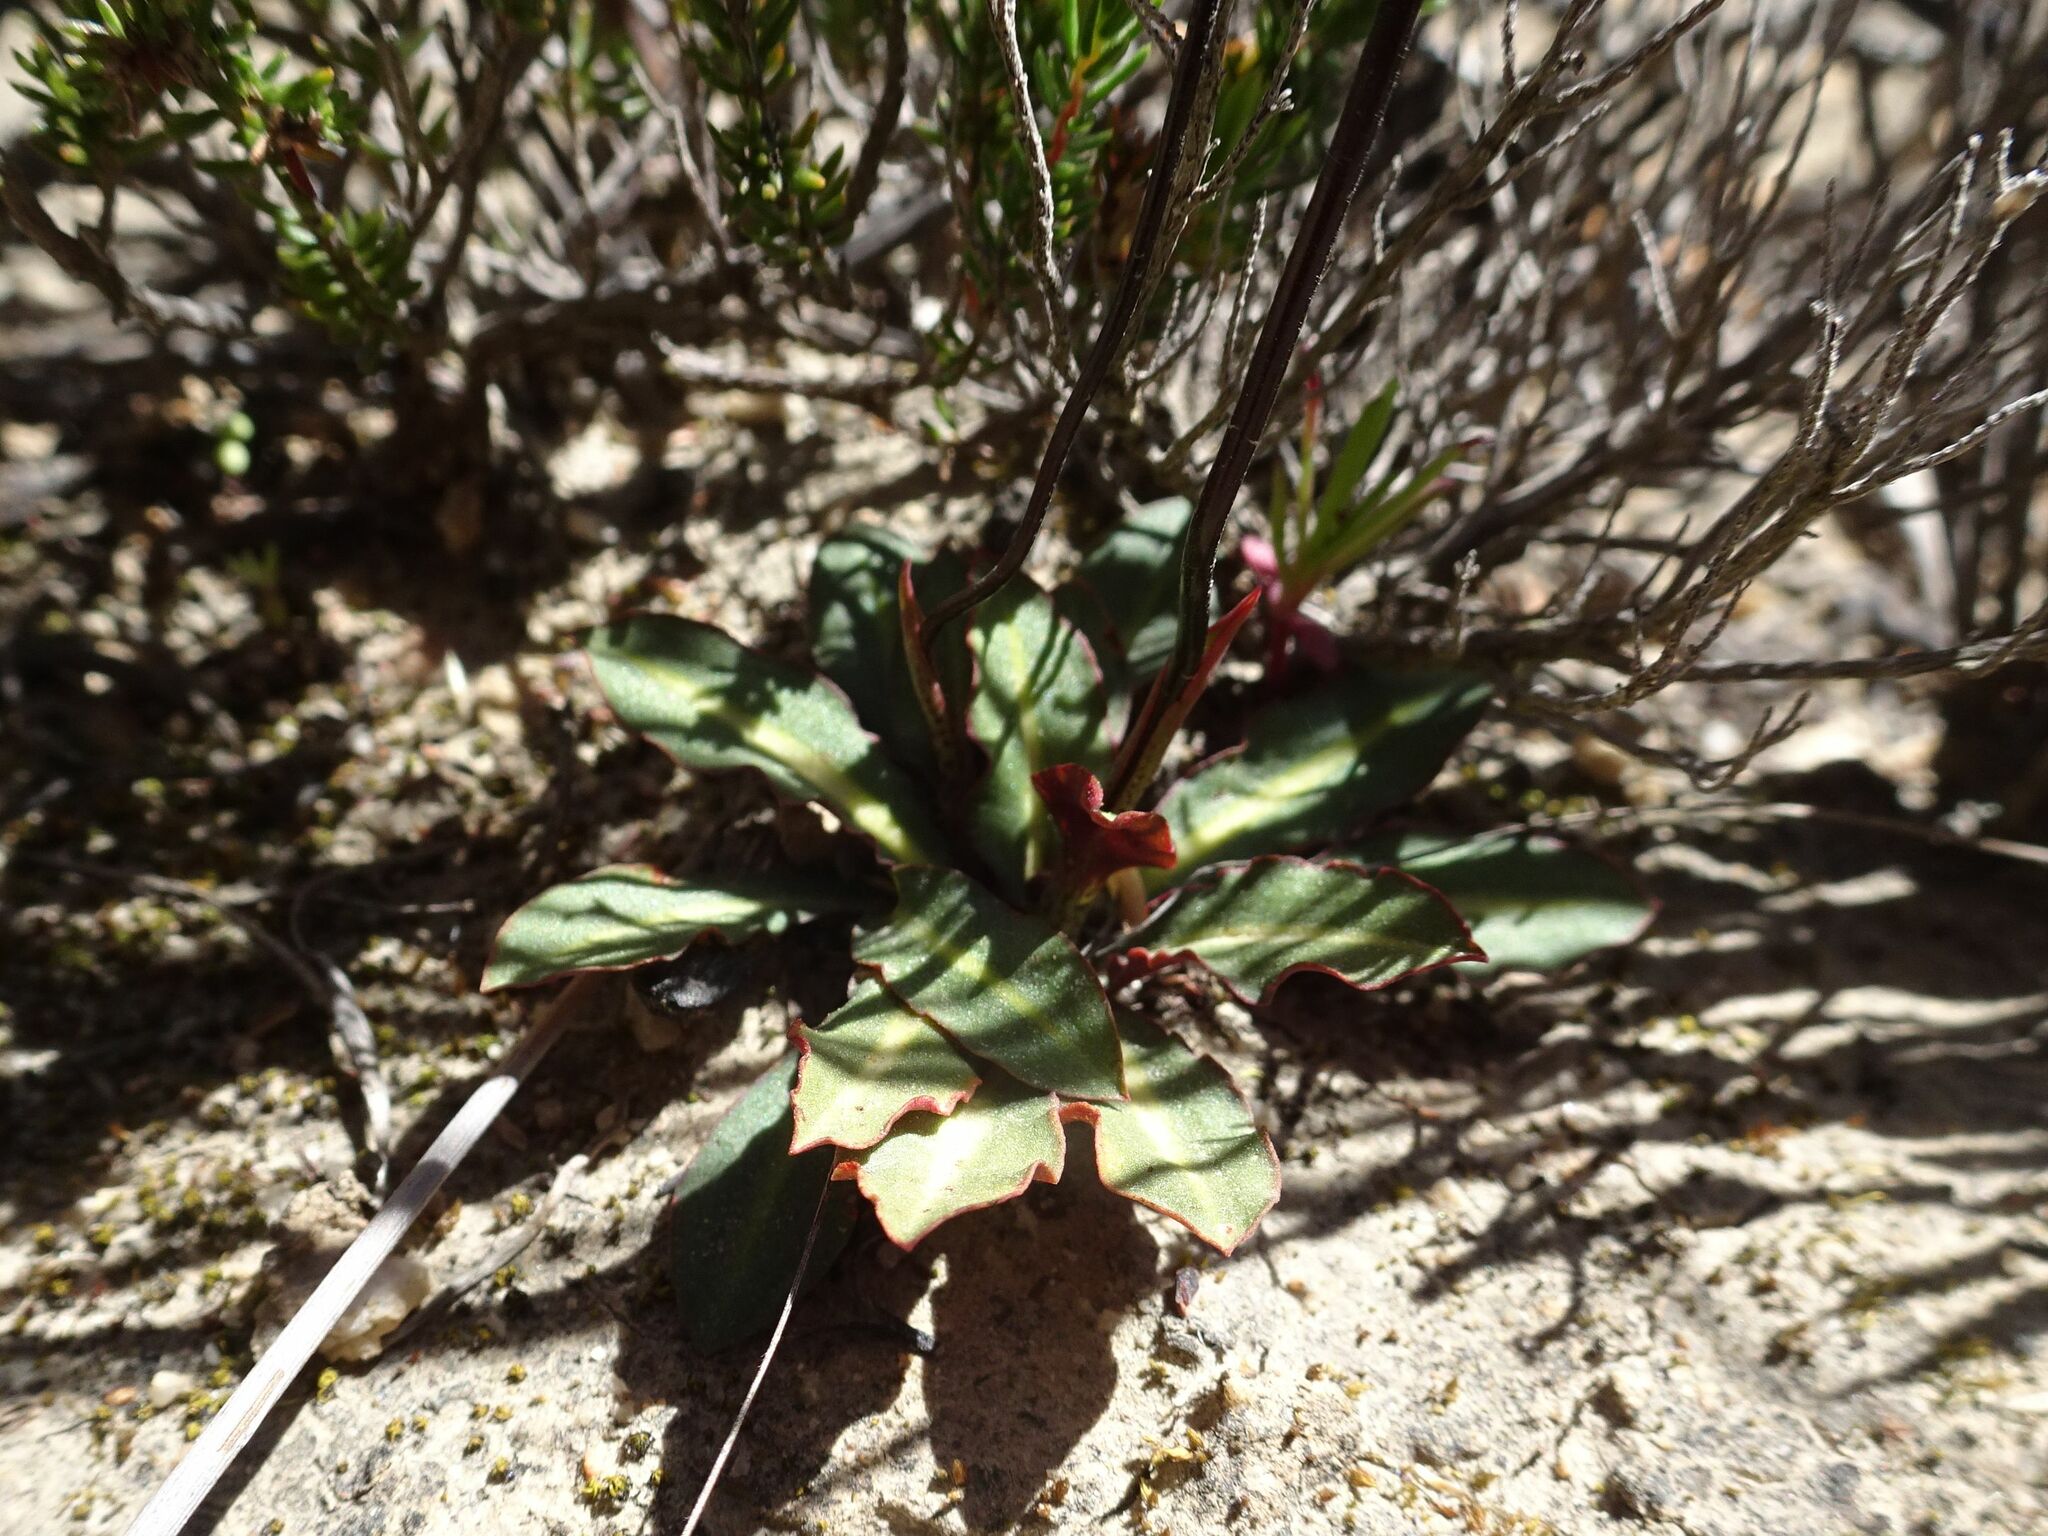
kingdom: Plantae
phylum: Tracheophyta
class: Liliopsida
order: Asparagales
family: Orchidaceae
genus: Disa
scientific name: Disa bifida
